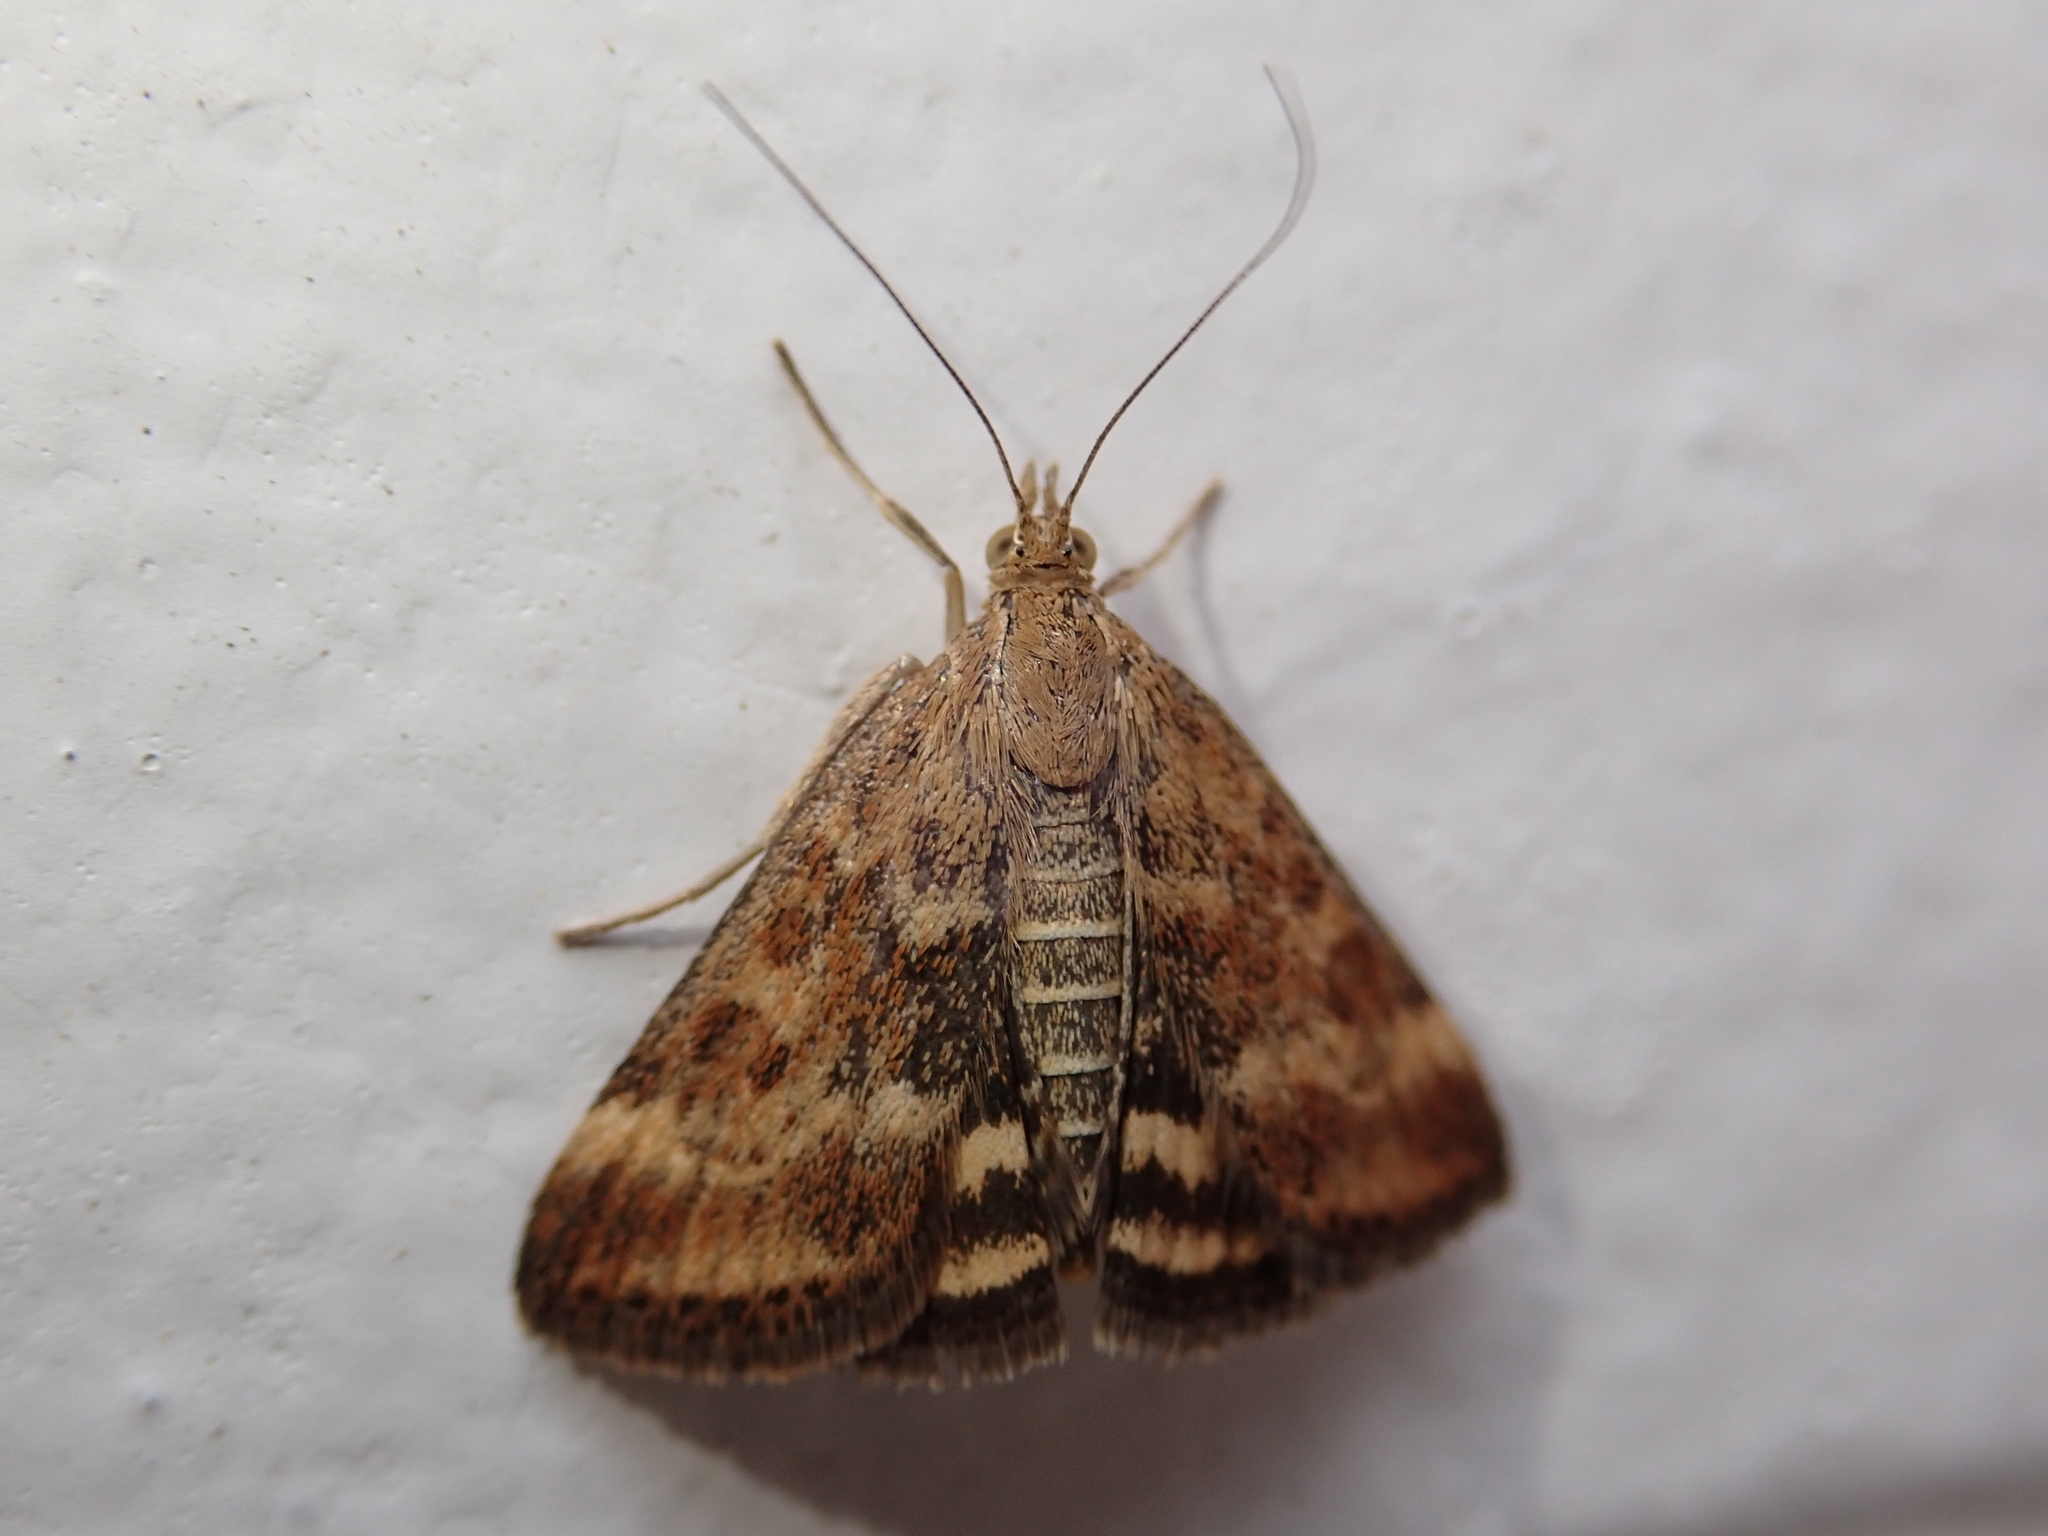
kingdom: Animalia
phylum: Arthropoda
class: Insecta
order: Lepidoptera
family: Crambidae
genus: Pyrausta
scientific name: Pyrausta despicata
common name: Straw-barred pearl
